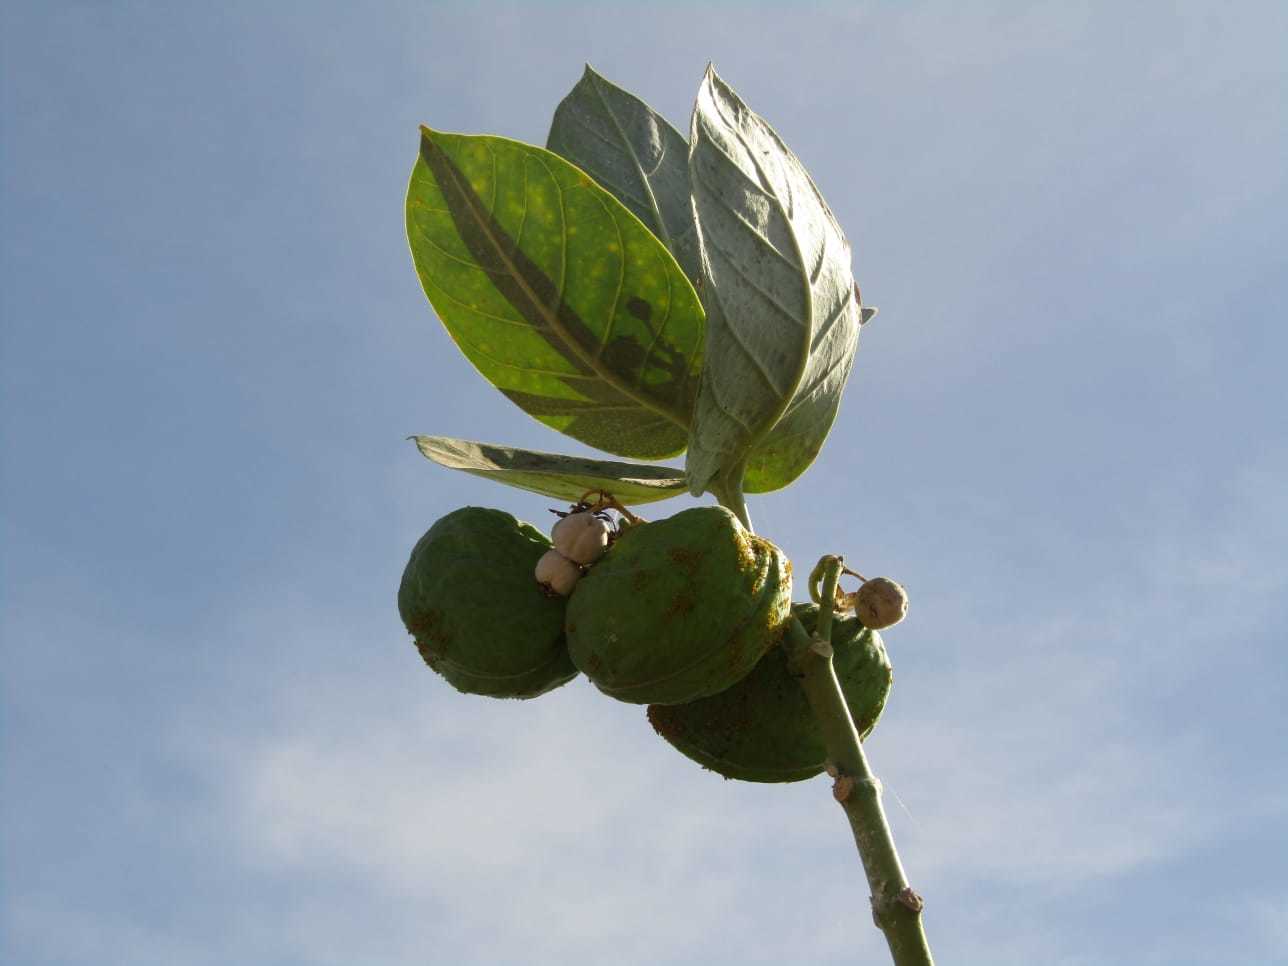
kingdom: Plantae
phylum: Tracheophyta
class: Magnoliopsida
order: Gentianales
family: Apocynaceae
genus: Calotropis
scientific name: Calotropis procera
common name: Roostertree
